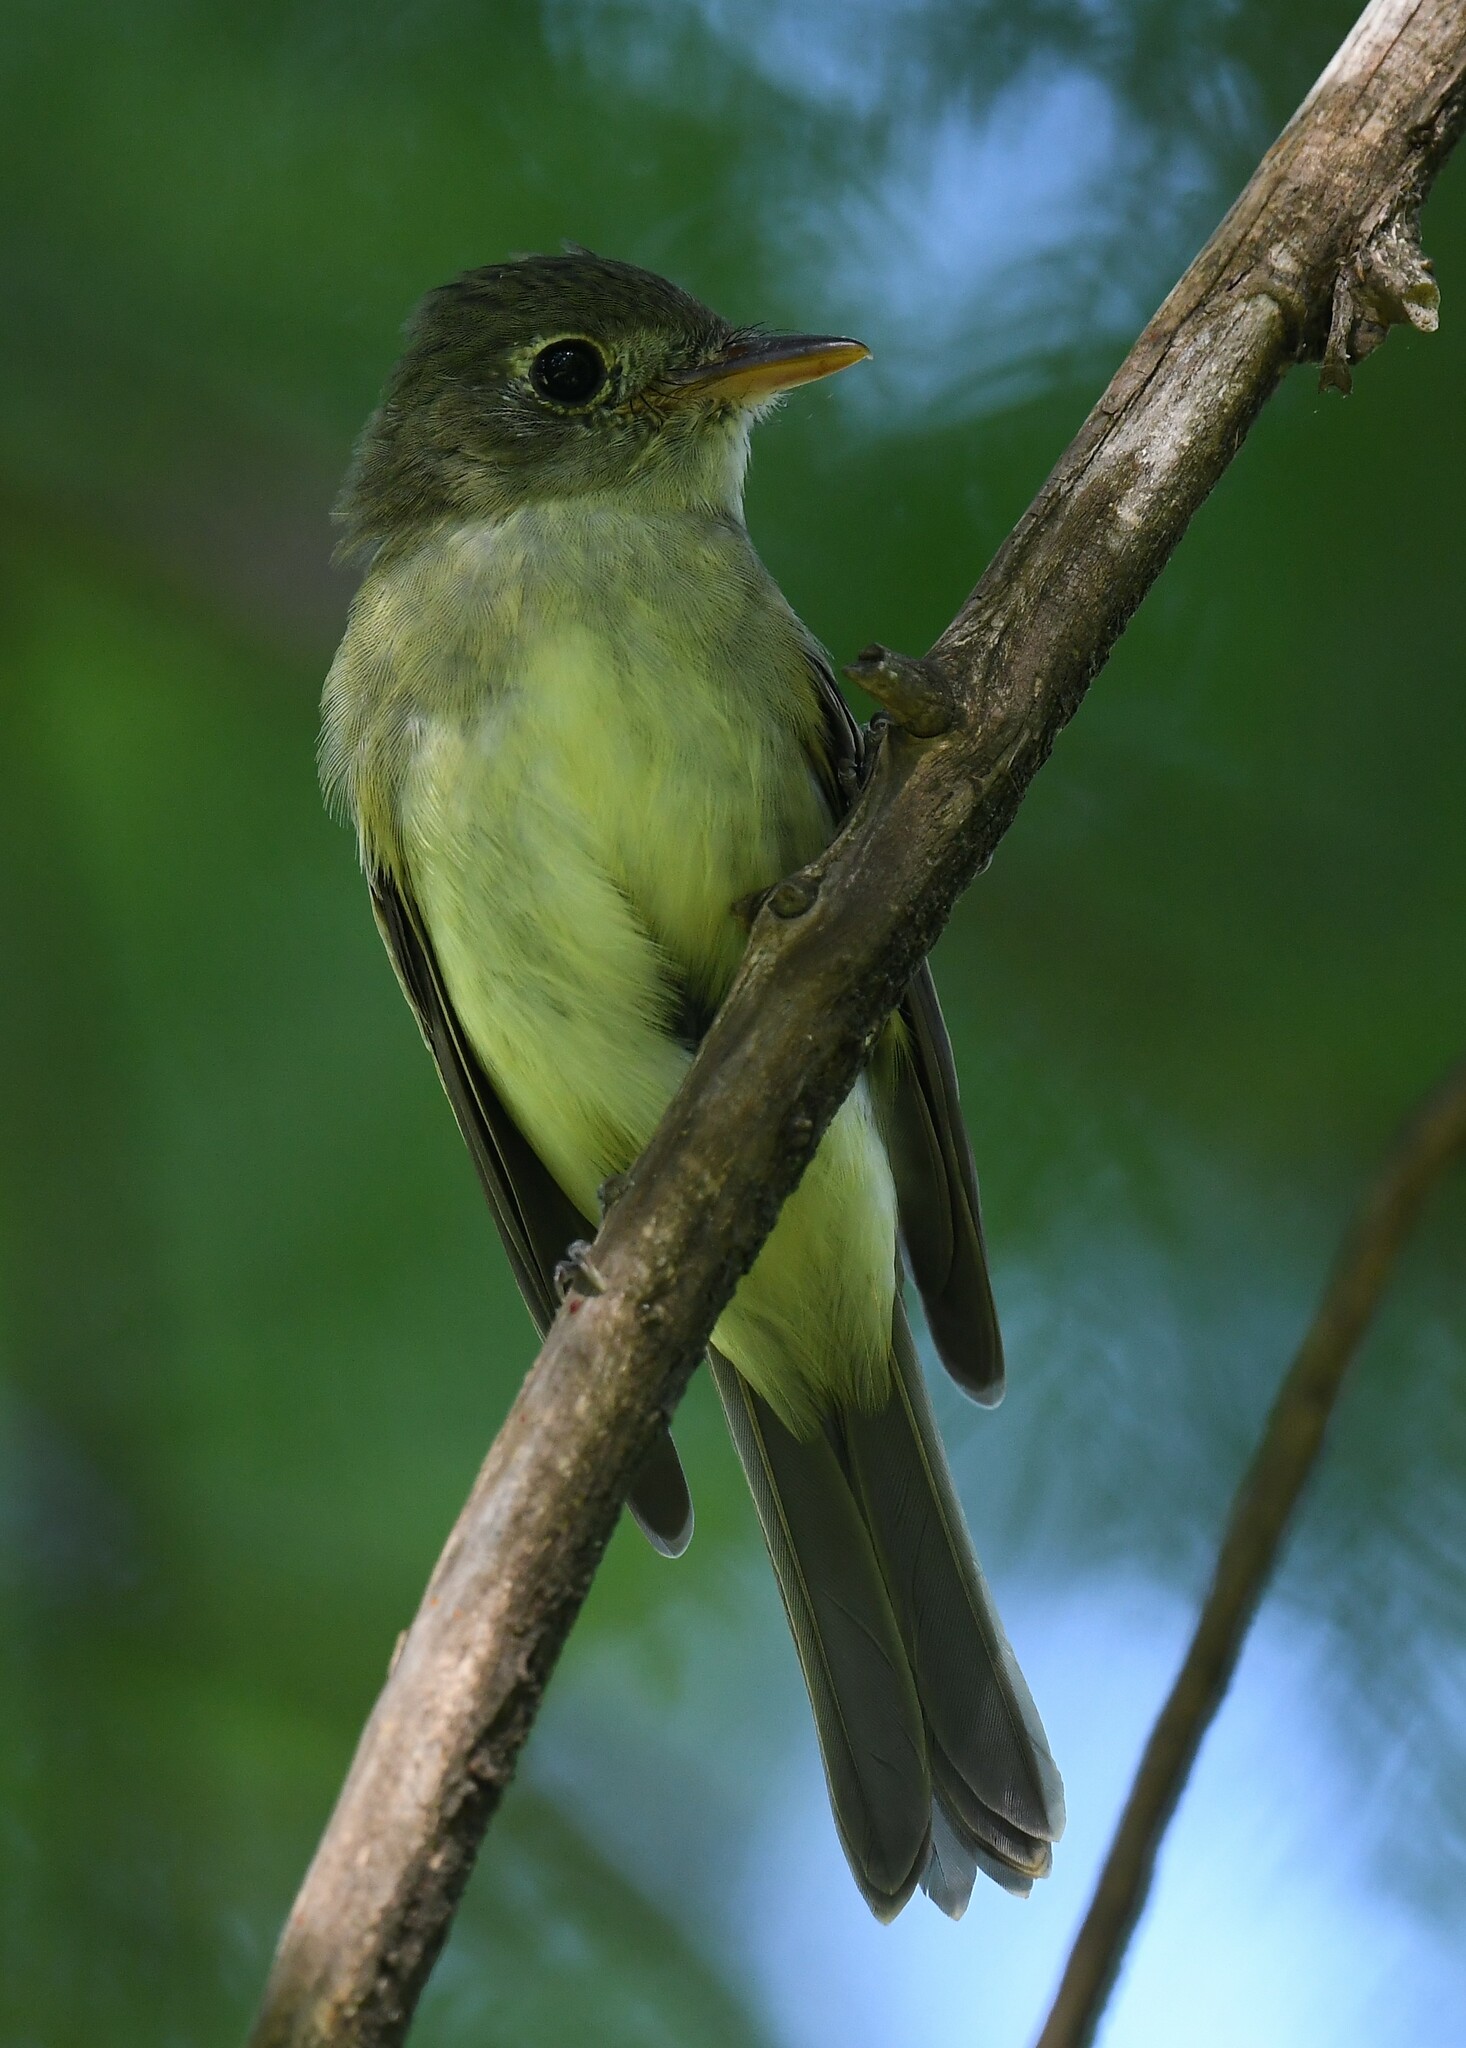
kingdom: Animalia
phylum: Chordata
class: Aves
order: Passeriformes
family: Tyrannidae
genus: Empidonax
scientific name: Empidonax virescens
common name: Acadian flycatcher
